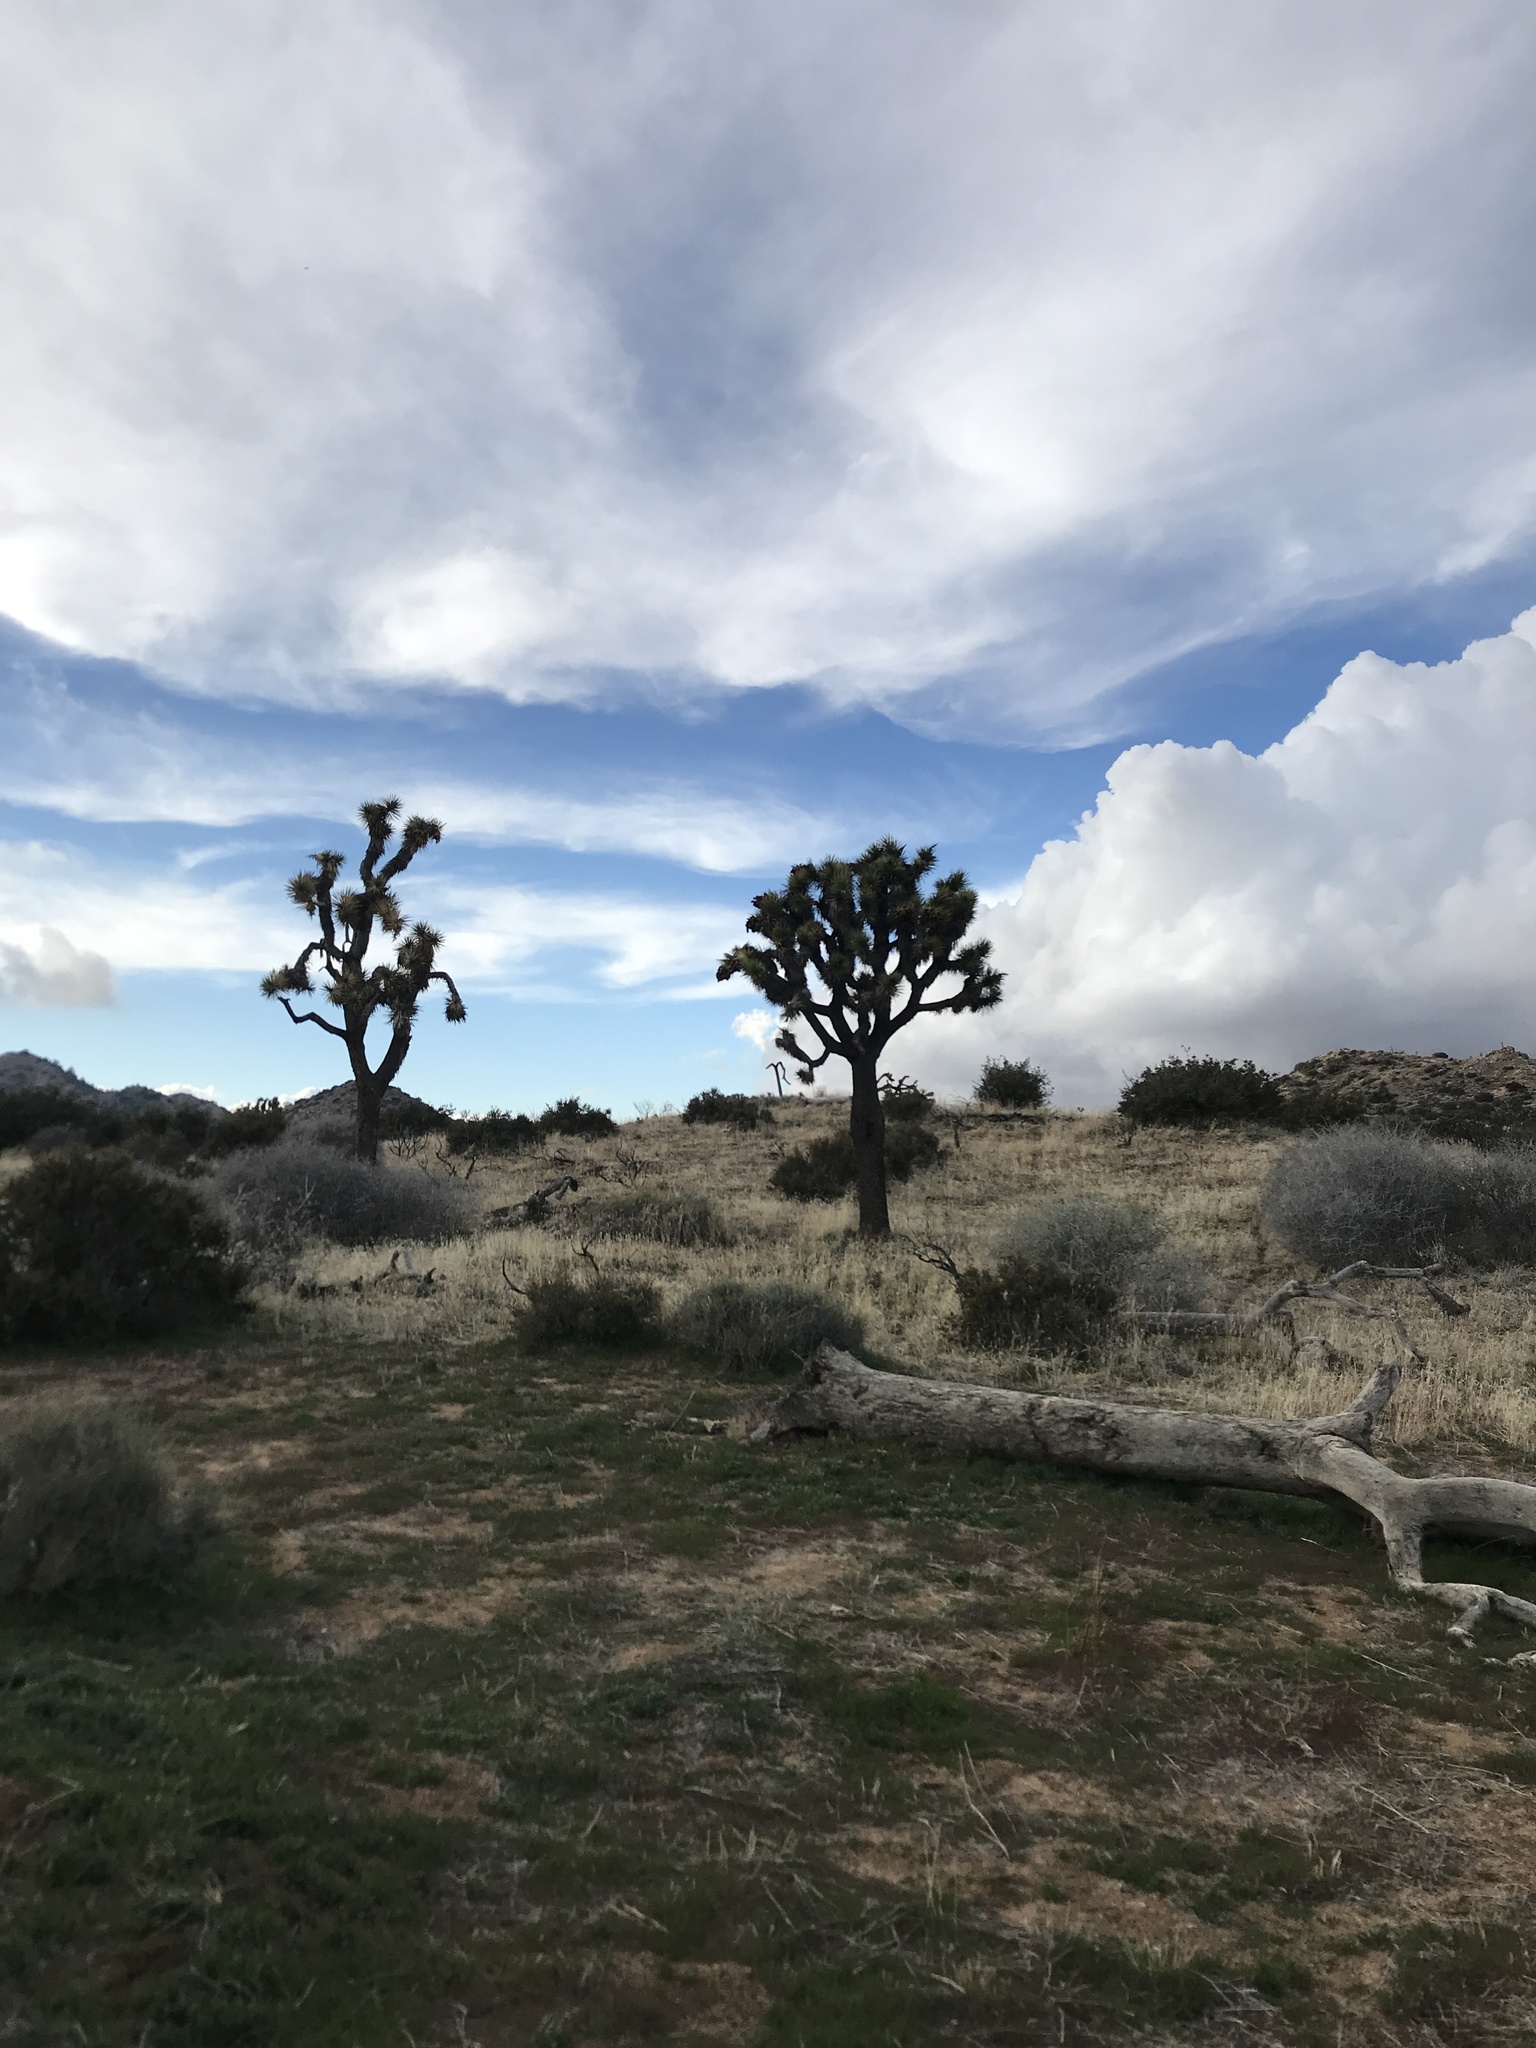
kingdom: Plantae
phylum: Tracheophyta
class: Liliopsida
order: Asparagales
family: Asparagaceae
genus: Yucca
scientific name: Yucca brevifolia
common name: Joshua tree
